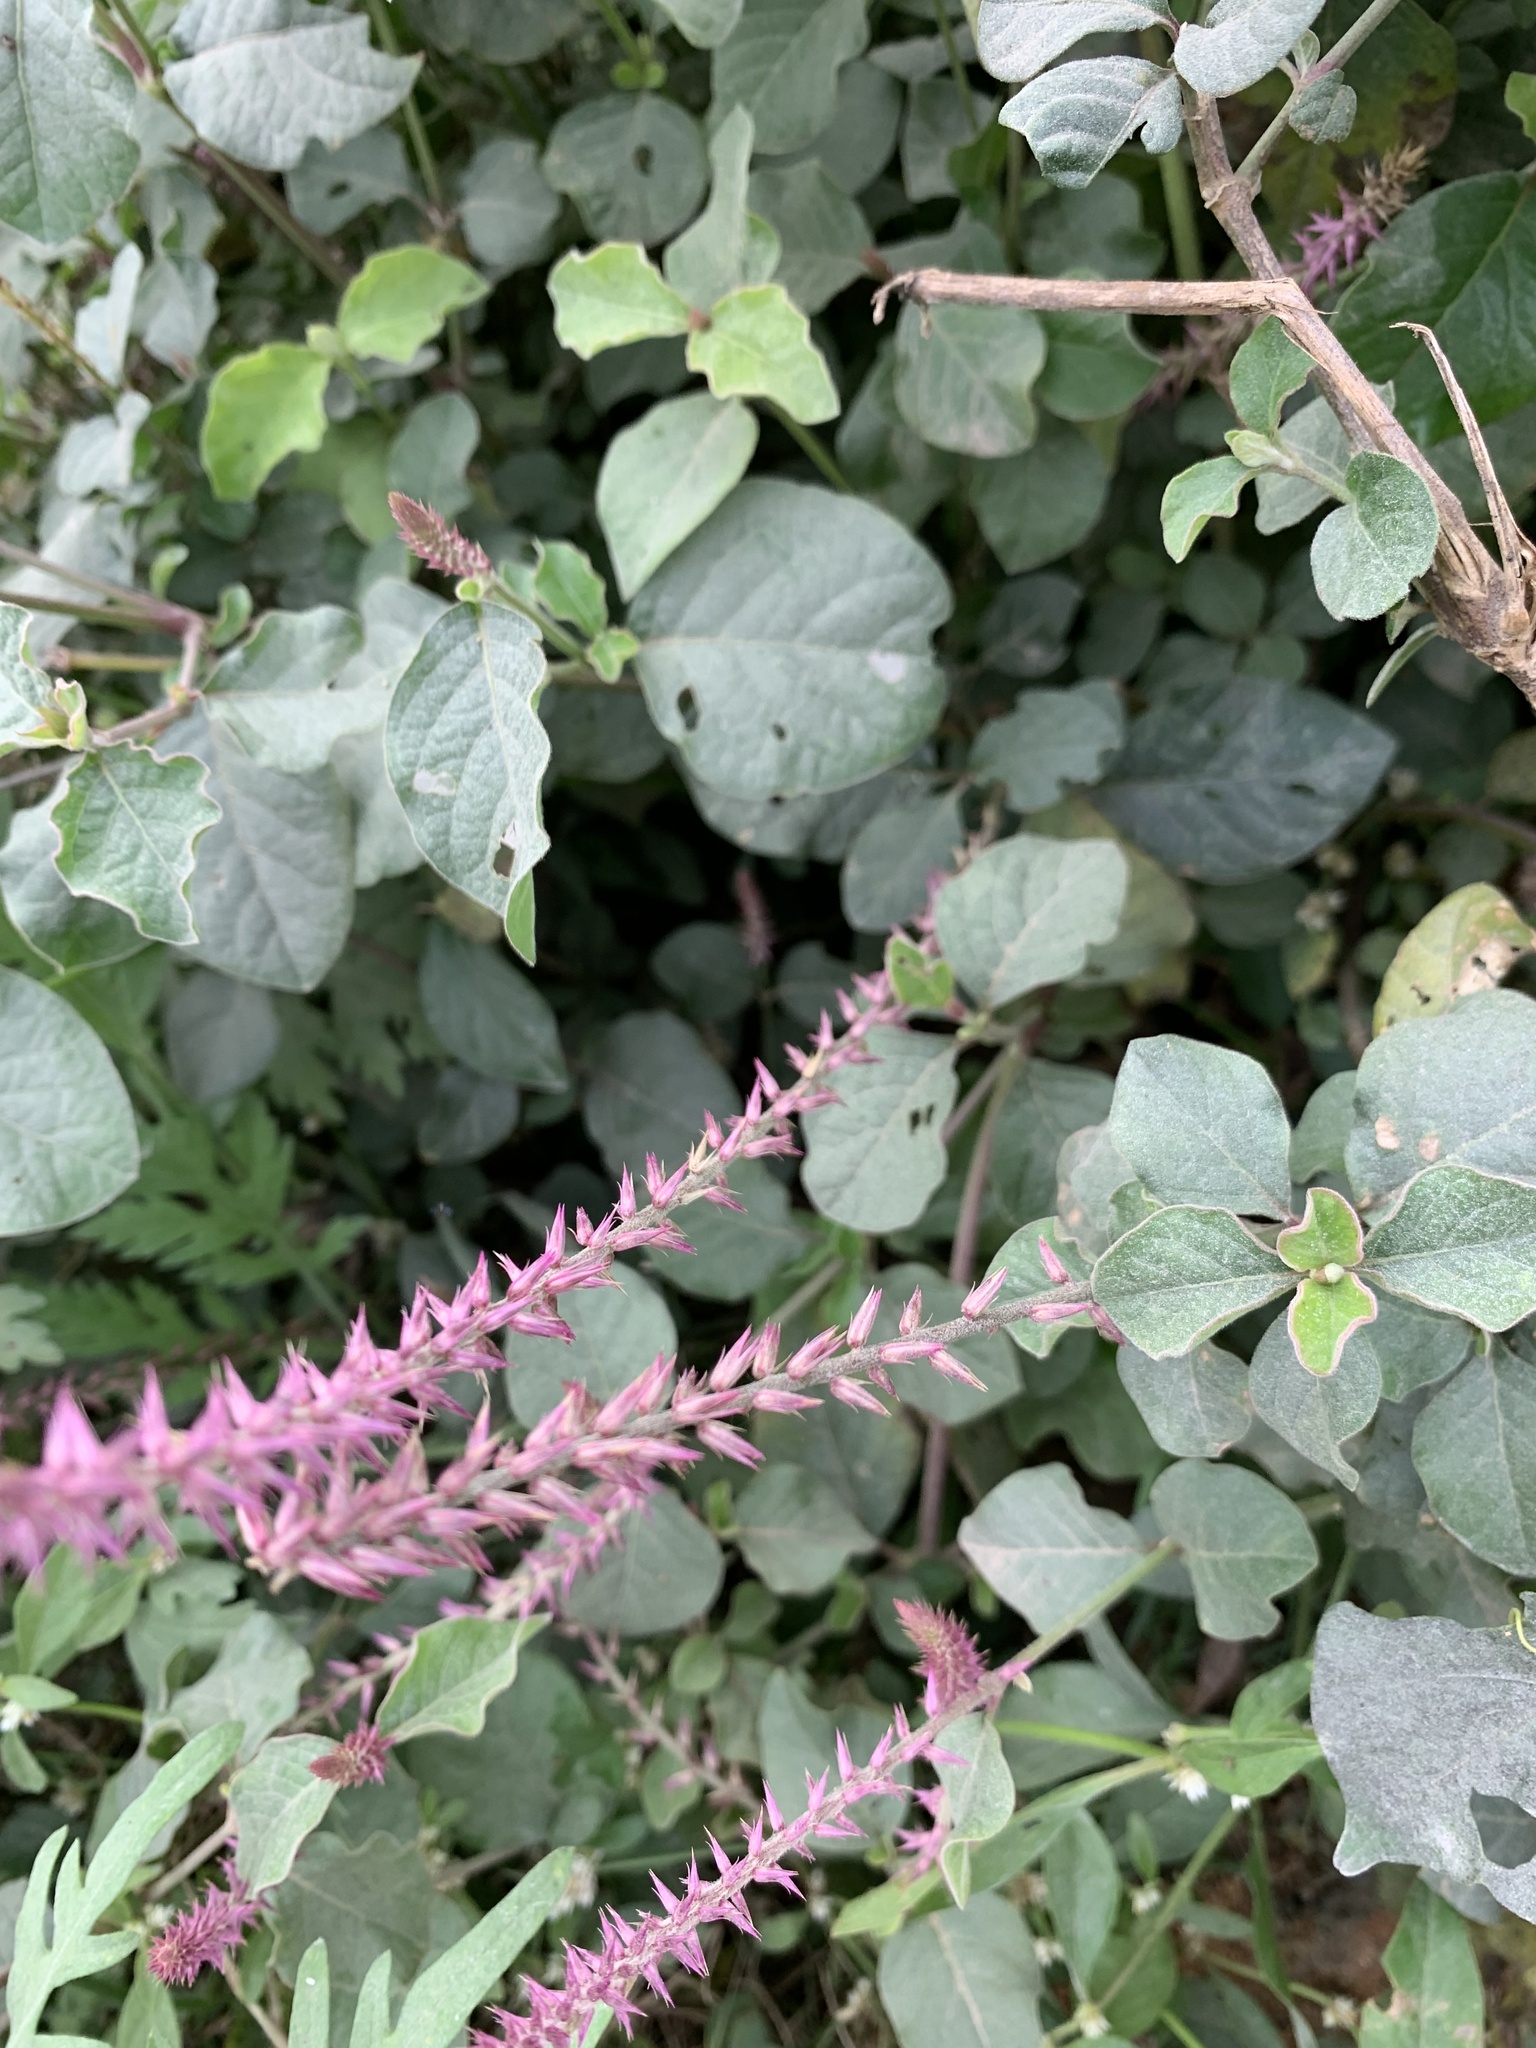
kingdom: Plantae
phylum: Tracheophyta
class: Magnoliopsida
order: Caryophyllales
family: Amaranthaceae
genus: Achyranthes
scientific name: Achyranthes aspera
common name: Devil's horsewhip
